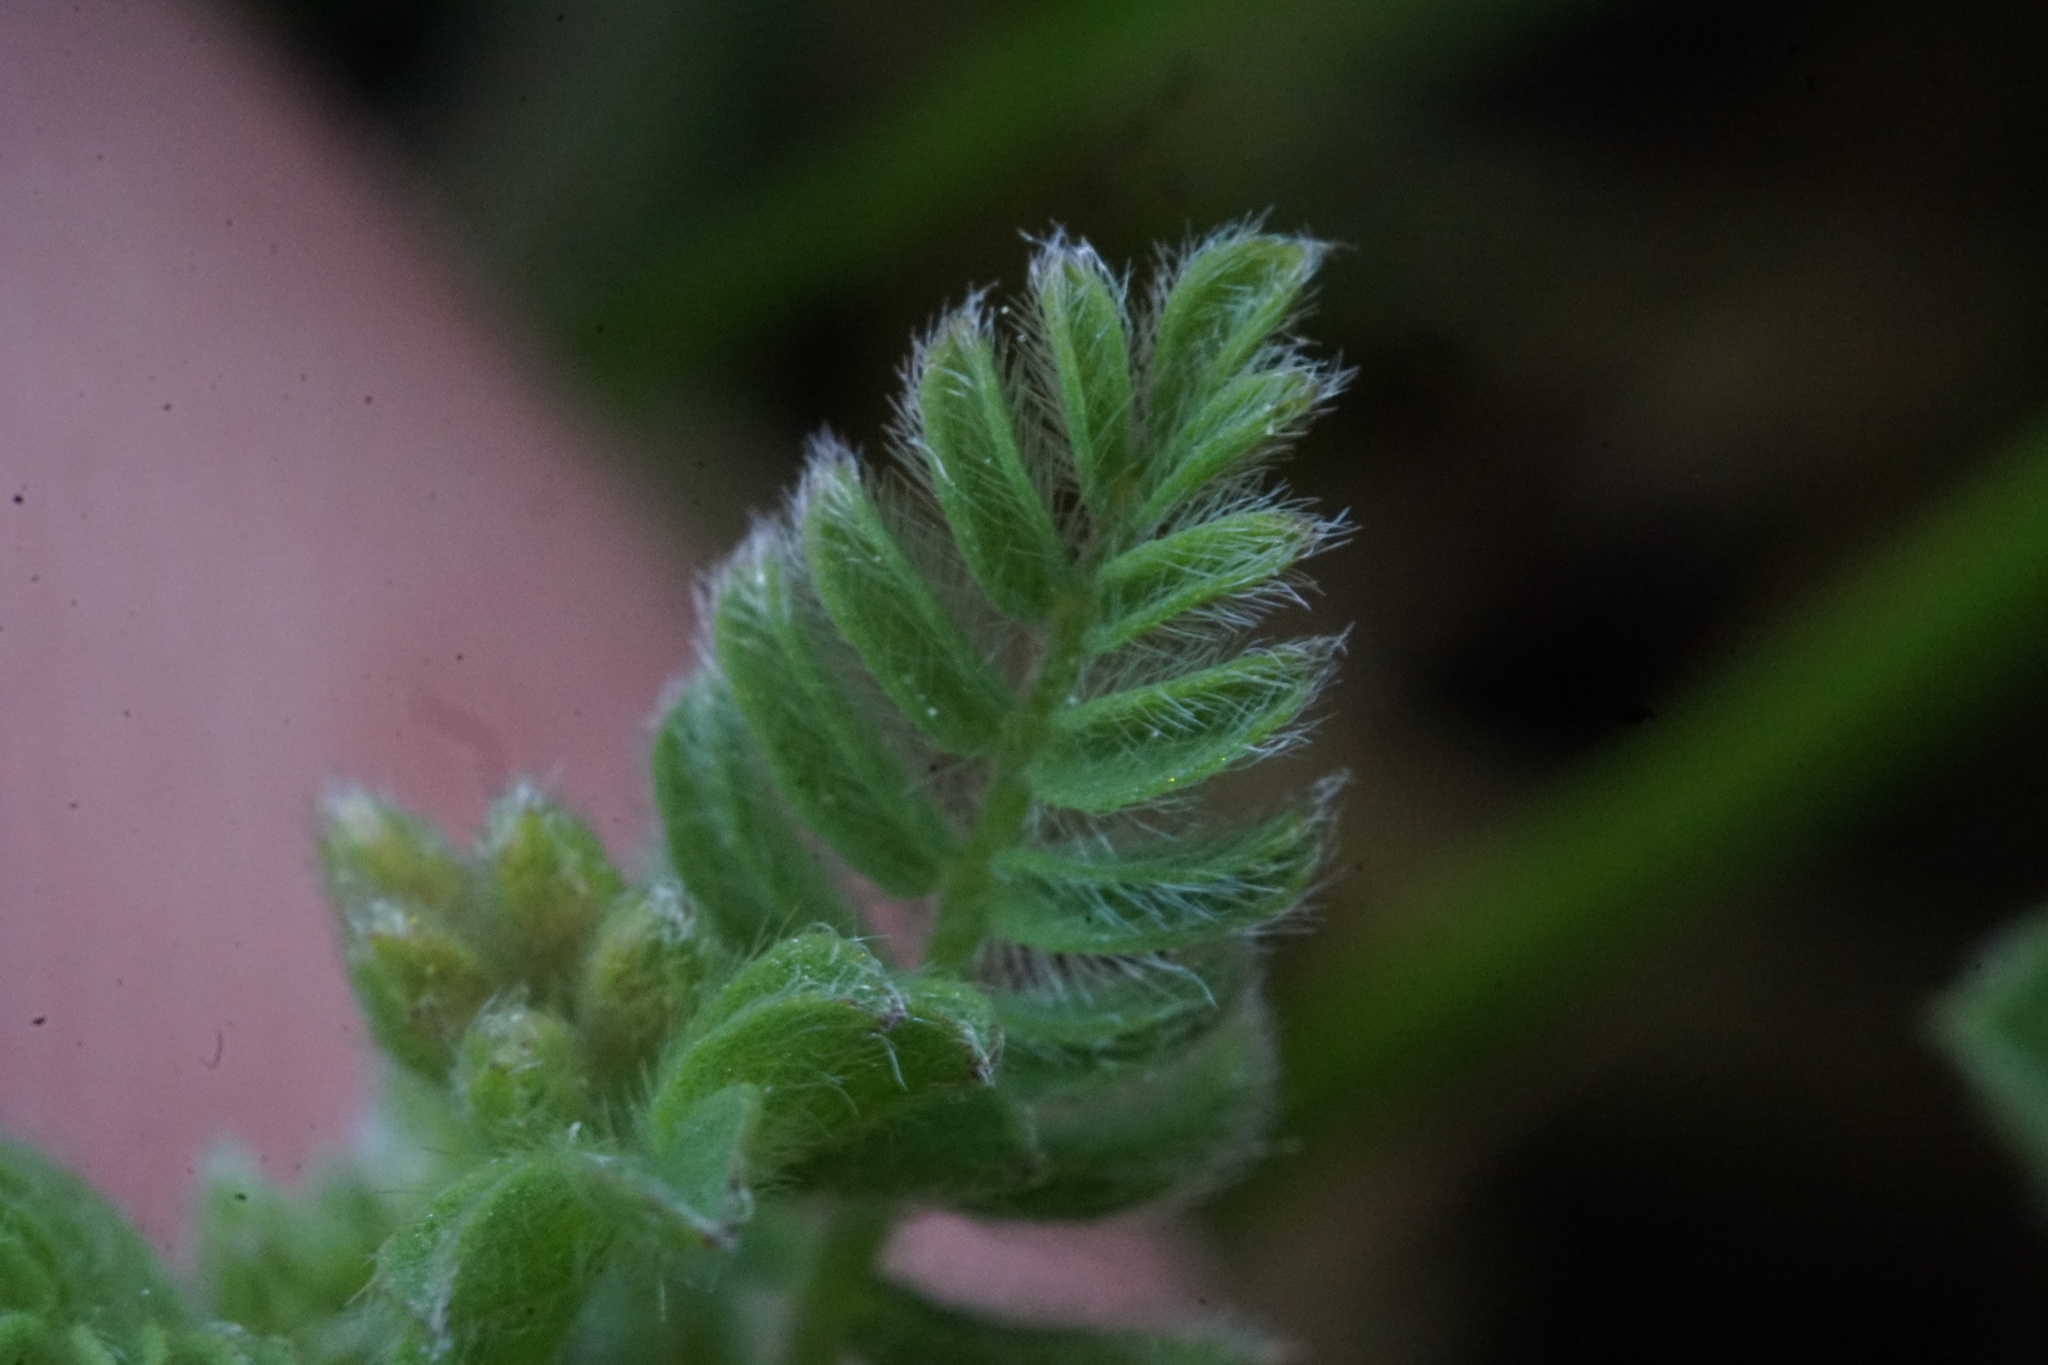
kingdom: Plantae
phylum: Tracheophyta
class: Magnoliopsida
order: Fabales
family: Fabaceae
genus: Ornithopus
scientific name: Ornithopus perpusillus
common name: Bird's-foot
